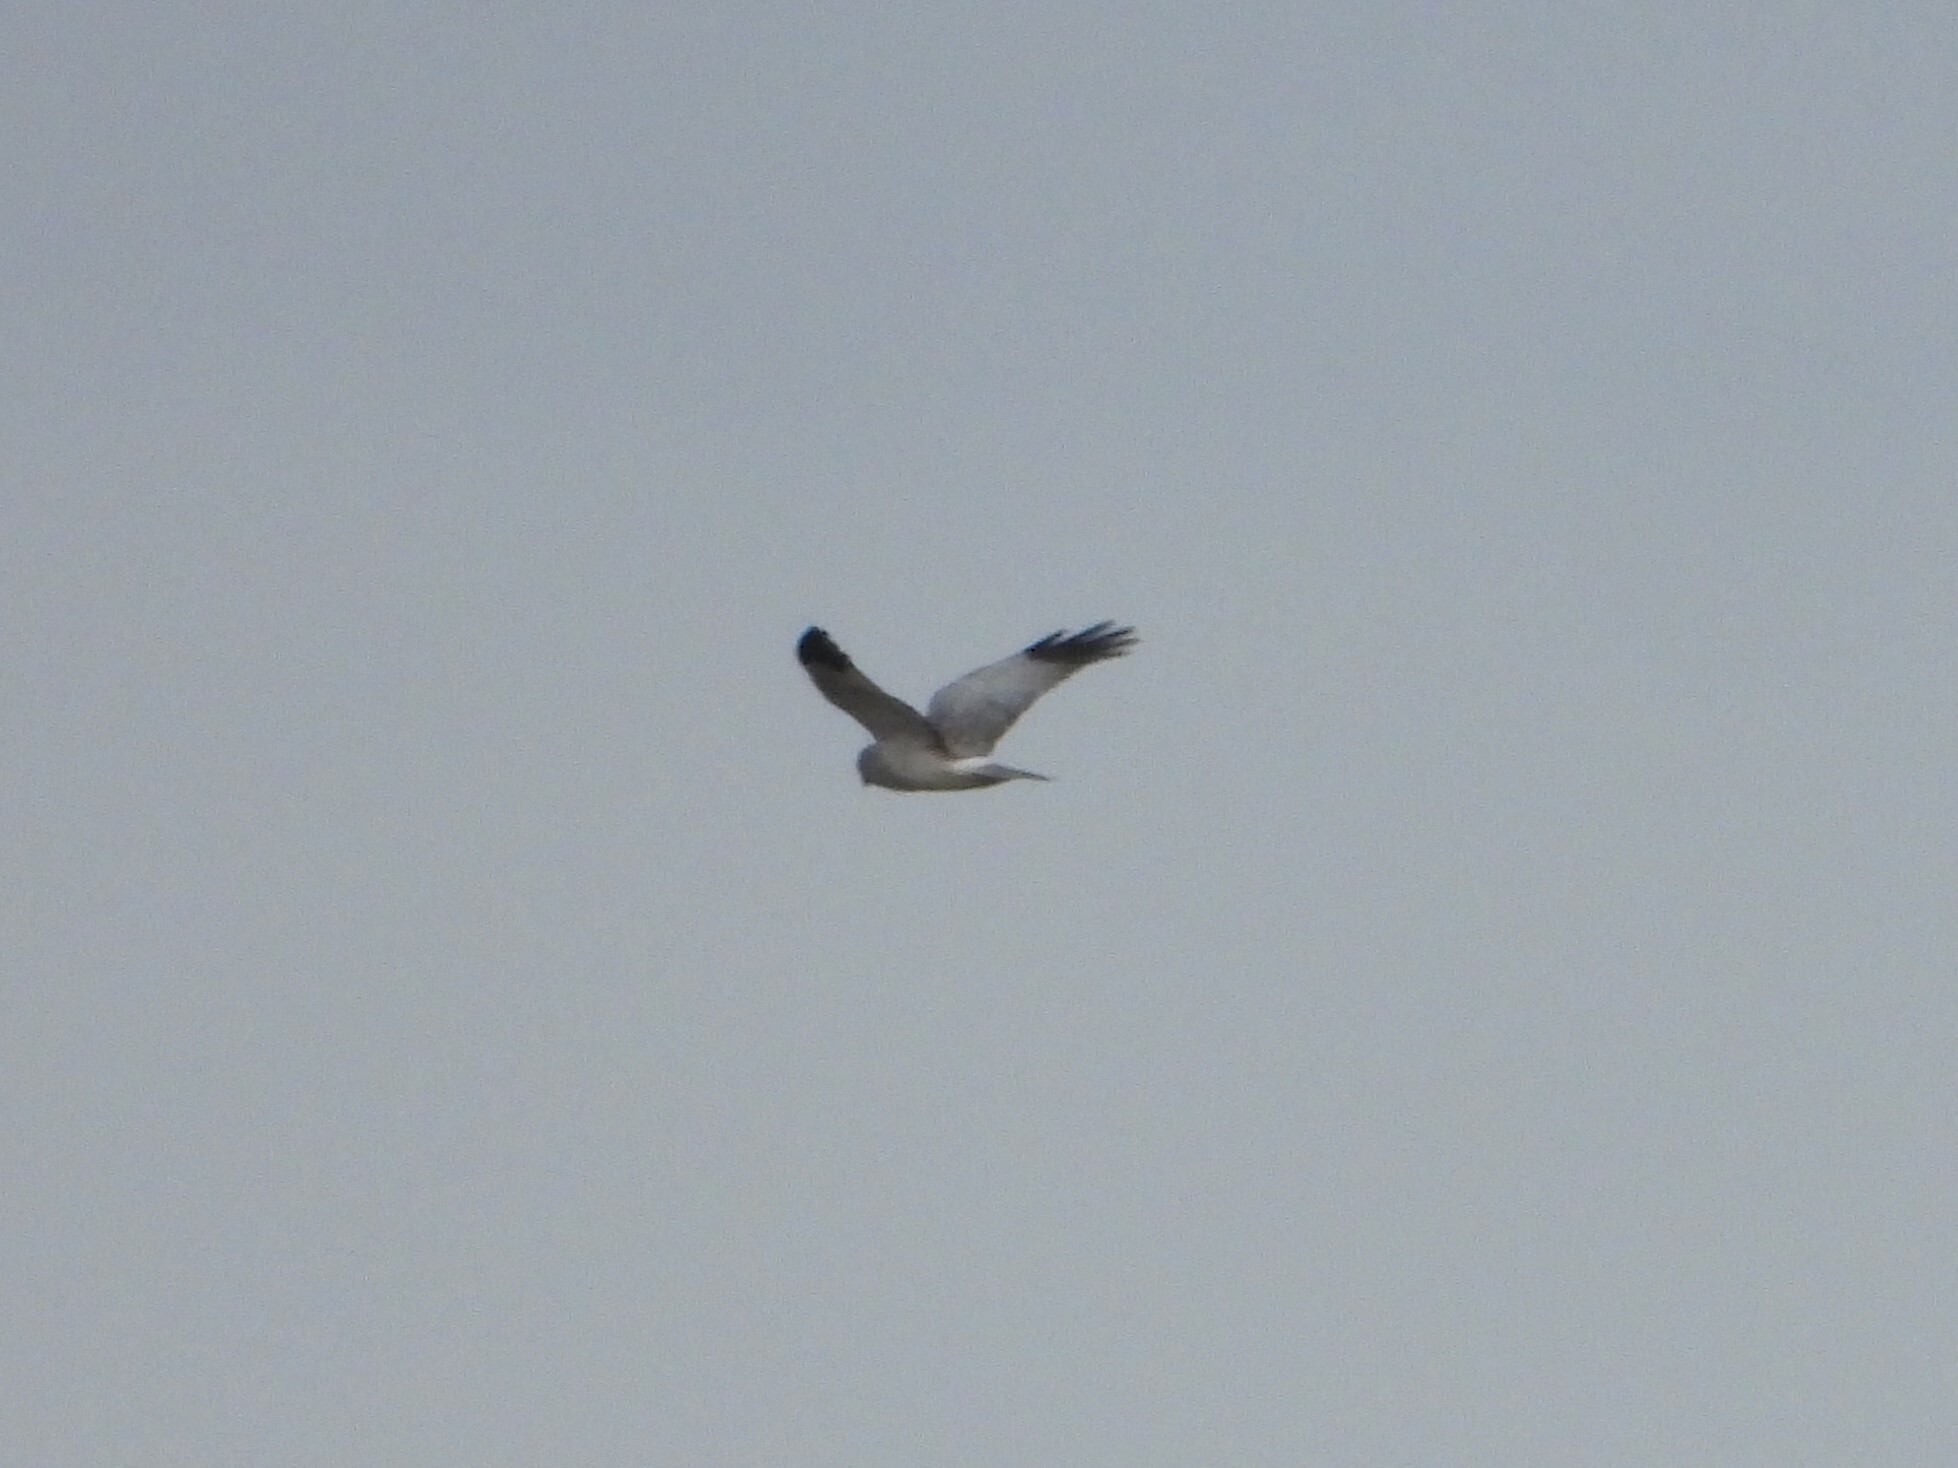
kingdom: Animalia
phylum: Chordata
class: Aves
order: Accipitriformes
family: Accipitridae
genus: Circus
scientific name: Circus cyaneus
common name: Hen harrier
